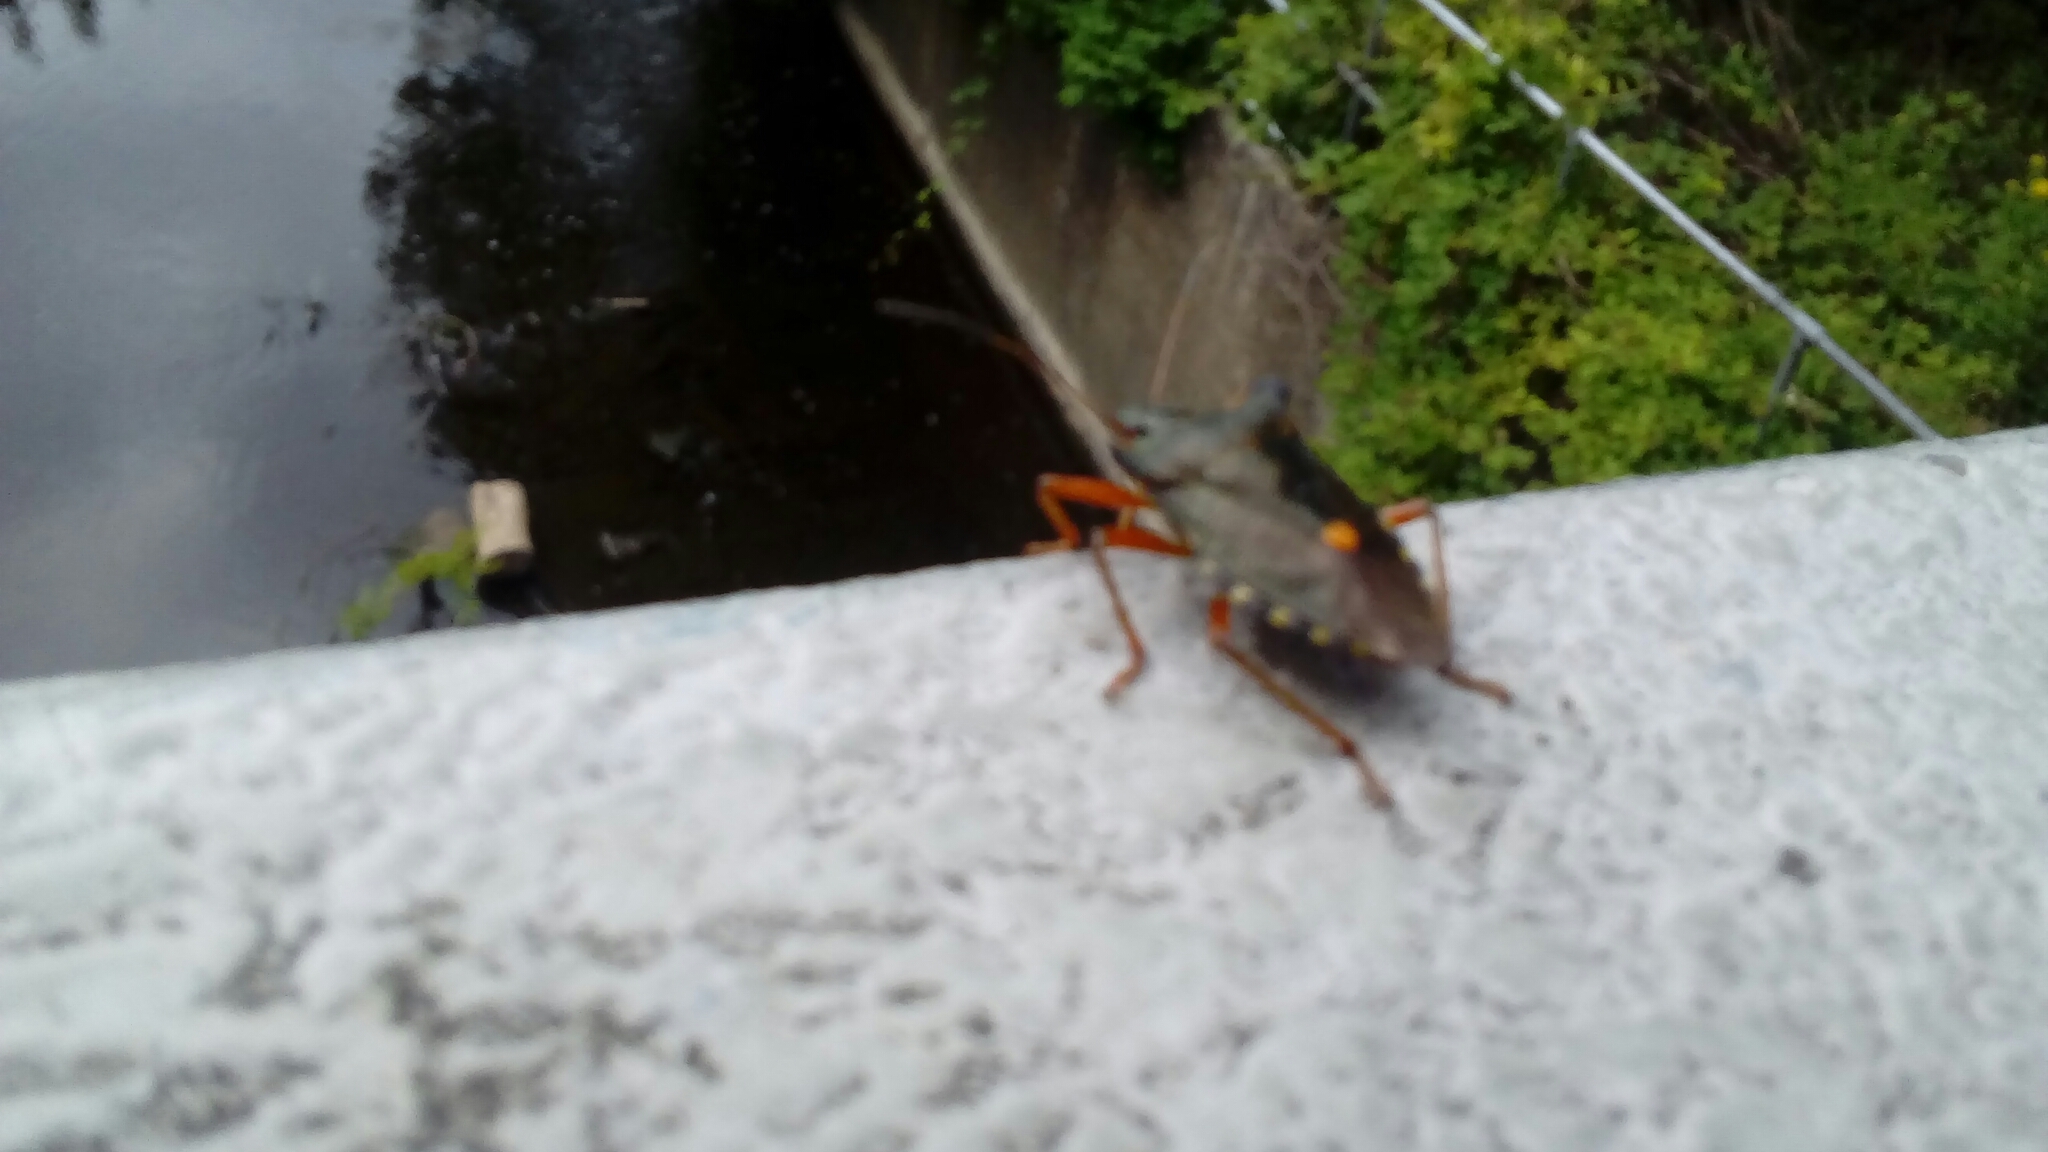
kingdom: Animalia
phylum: Arthropoda
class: Insecta
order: Hemiptera
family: Pentatomidae
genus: Pentatoma
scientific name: Pentatoma rufipes
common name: Forest bug
